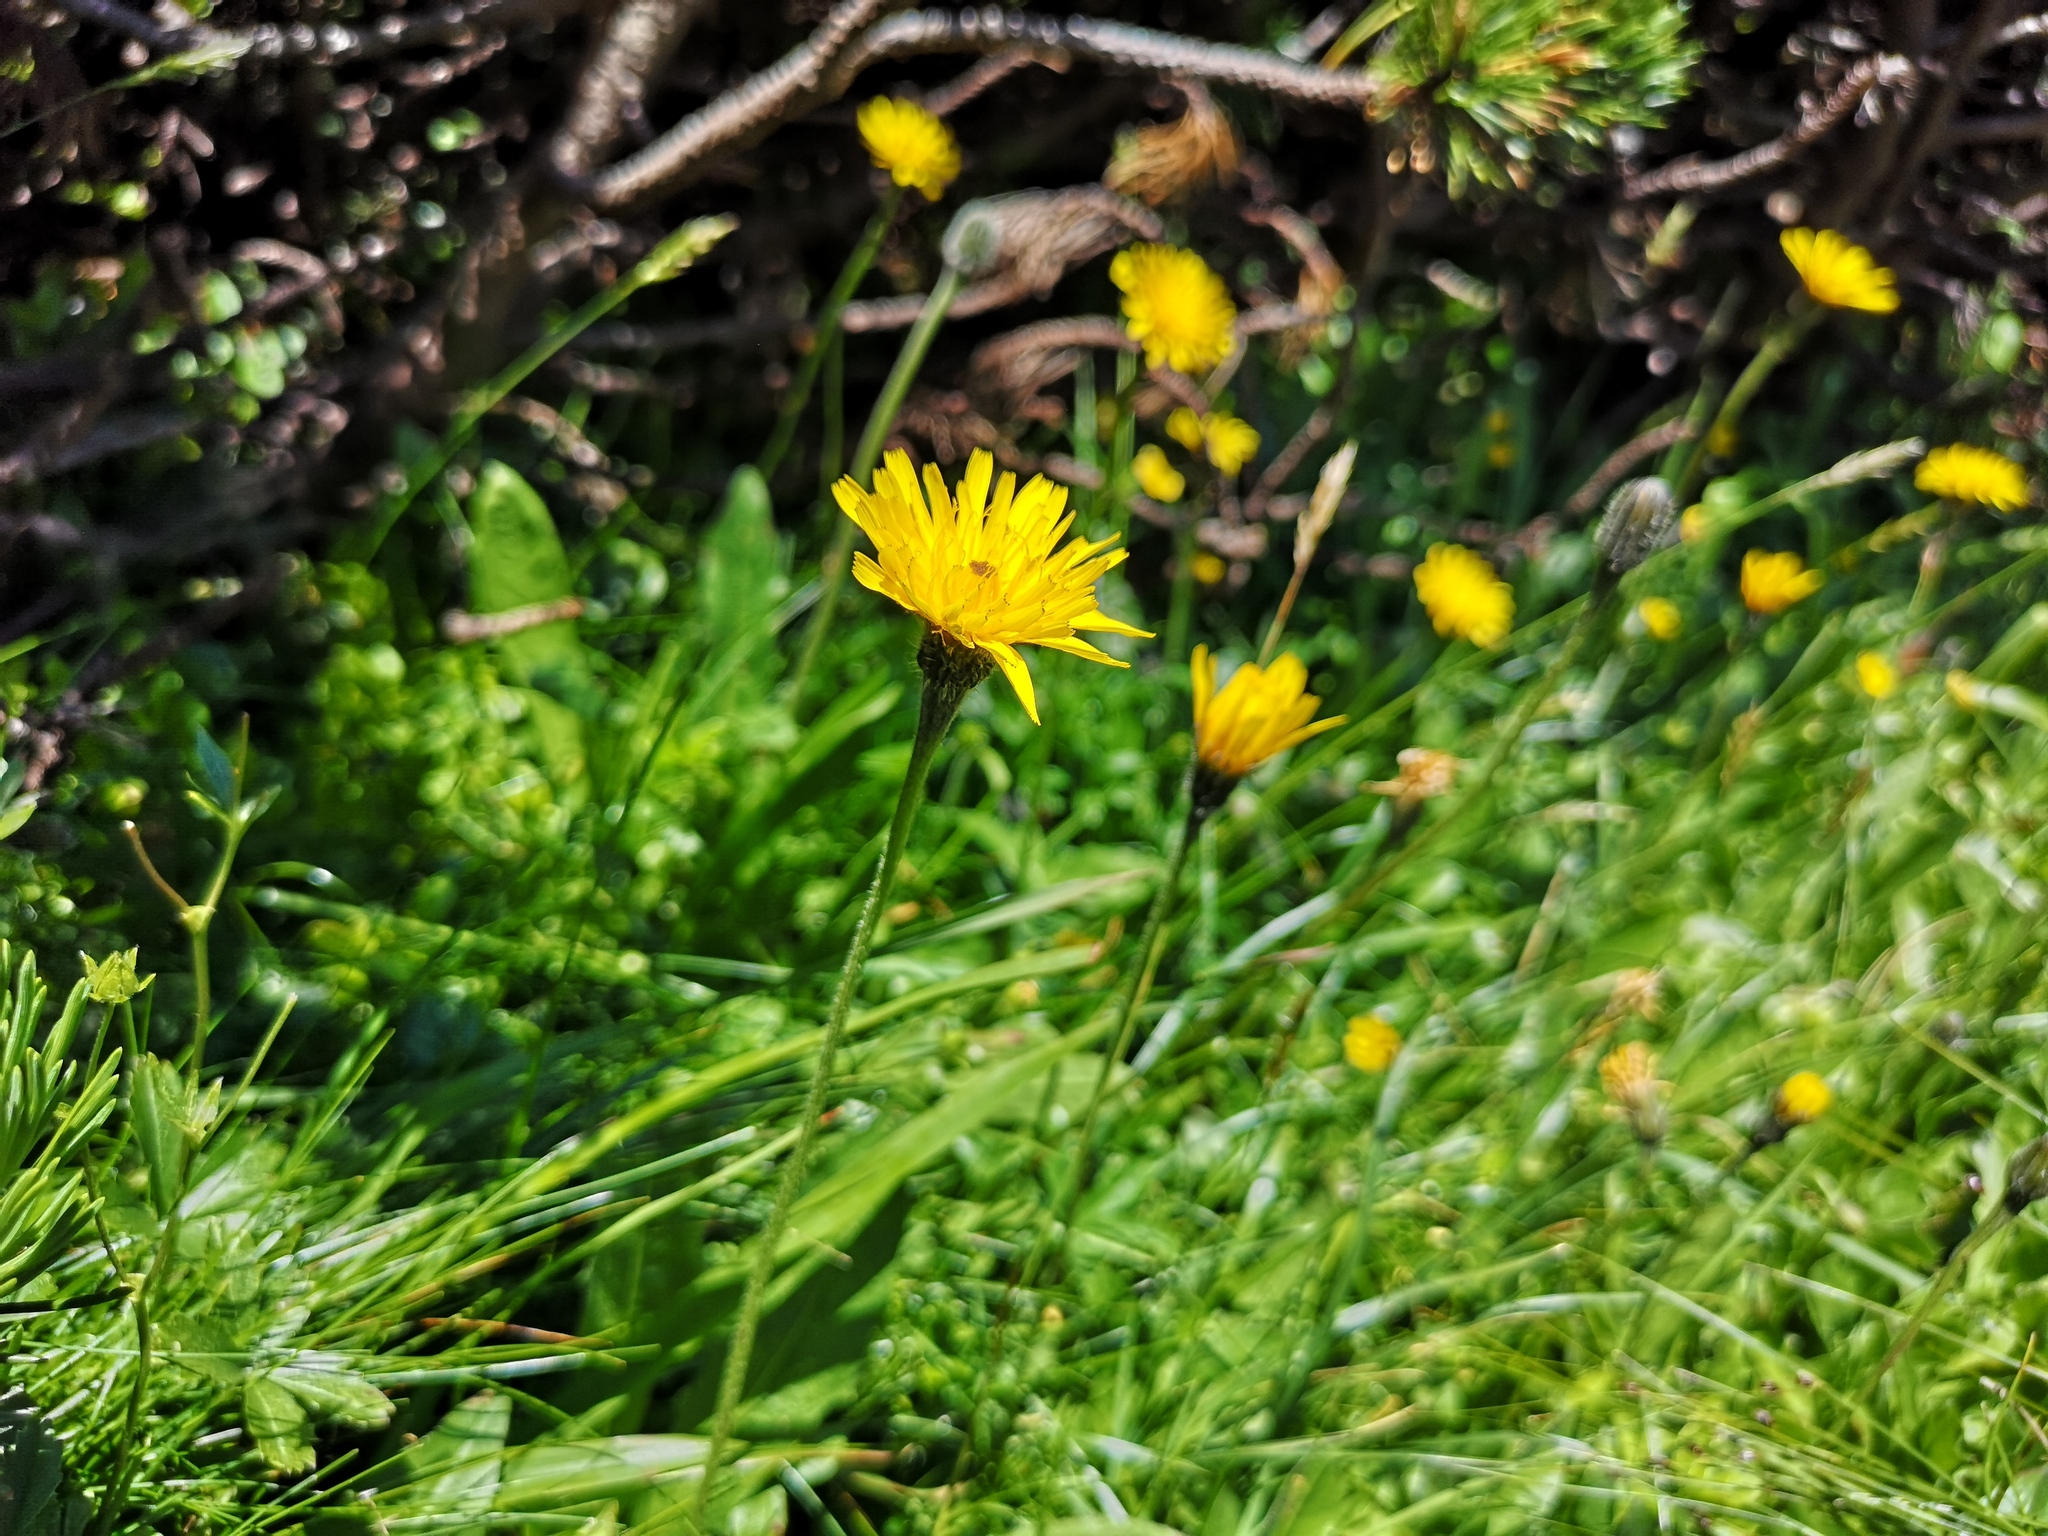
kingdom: Plantae
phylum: Tracheophyta
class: Magnoliopsida
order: Asterales
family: Asteraceae
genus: Leontodon
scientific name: Leontodon hispidus
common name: Rough hawkbit
